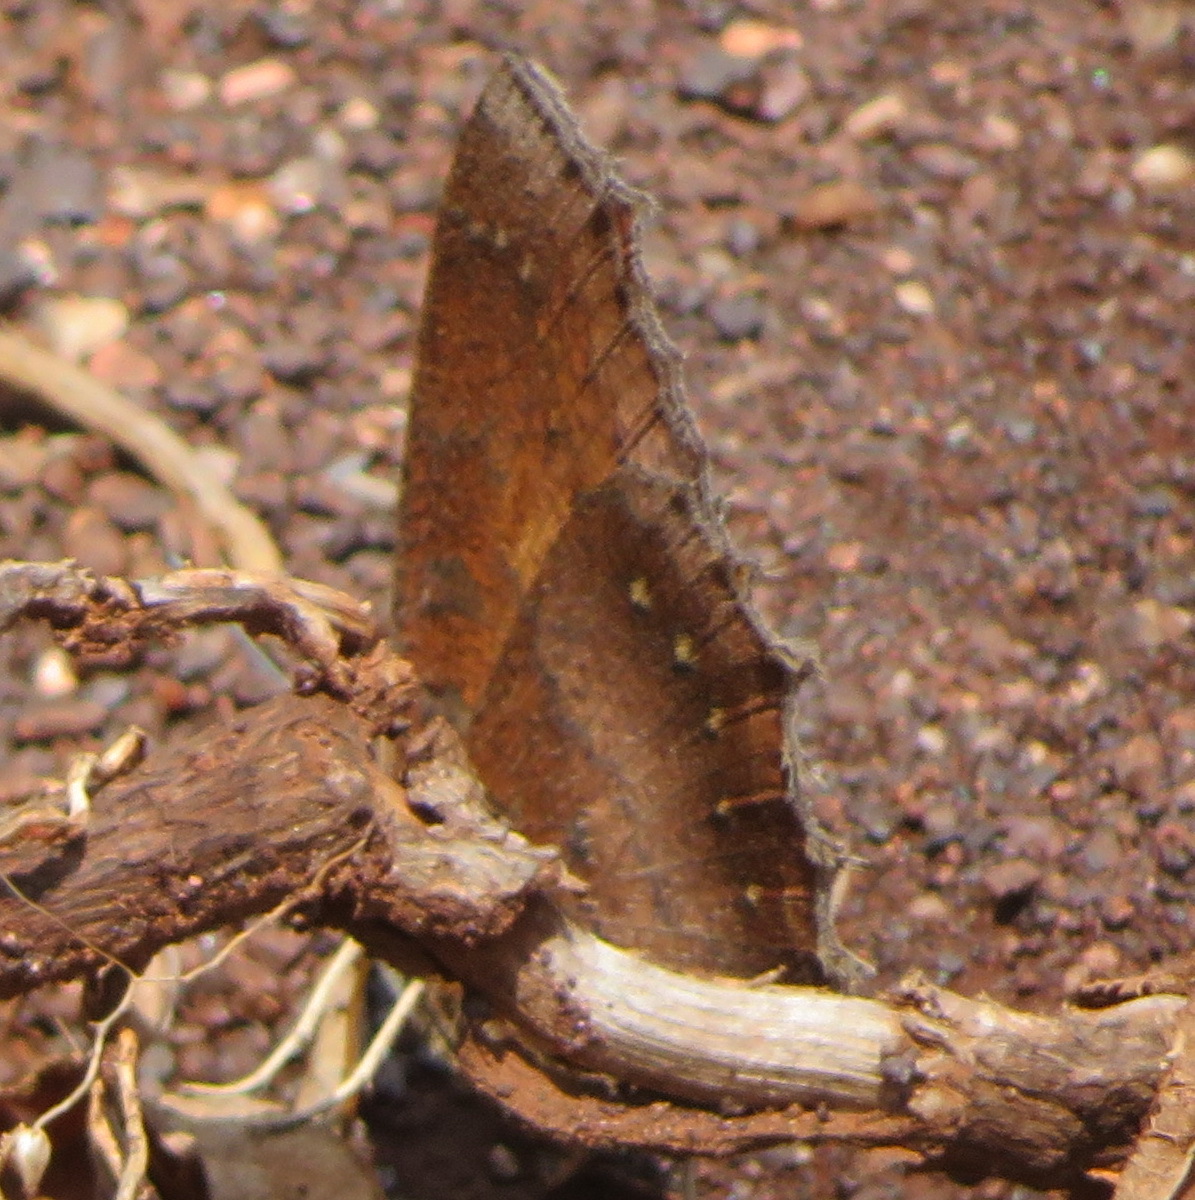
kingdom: Animalia
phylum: Arthropoda
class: Insecta
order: Lepidoptera
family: Nymphalidae
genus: Catacroptera
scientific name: Catacroptera cloanthe
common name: Pirate
